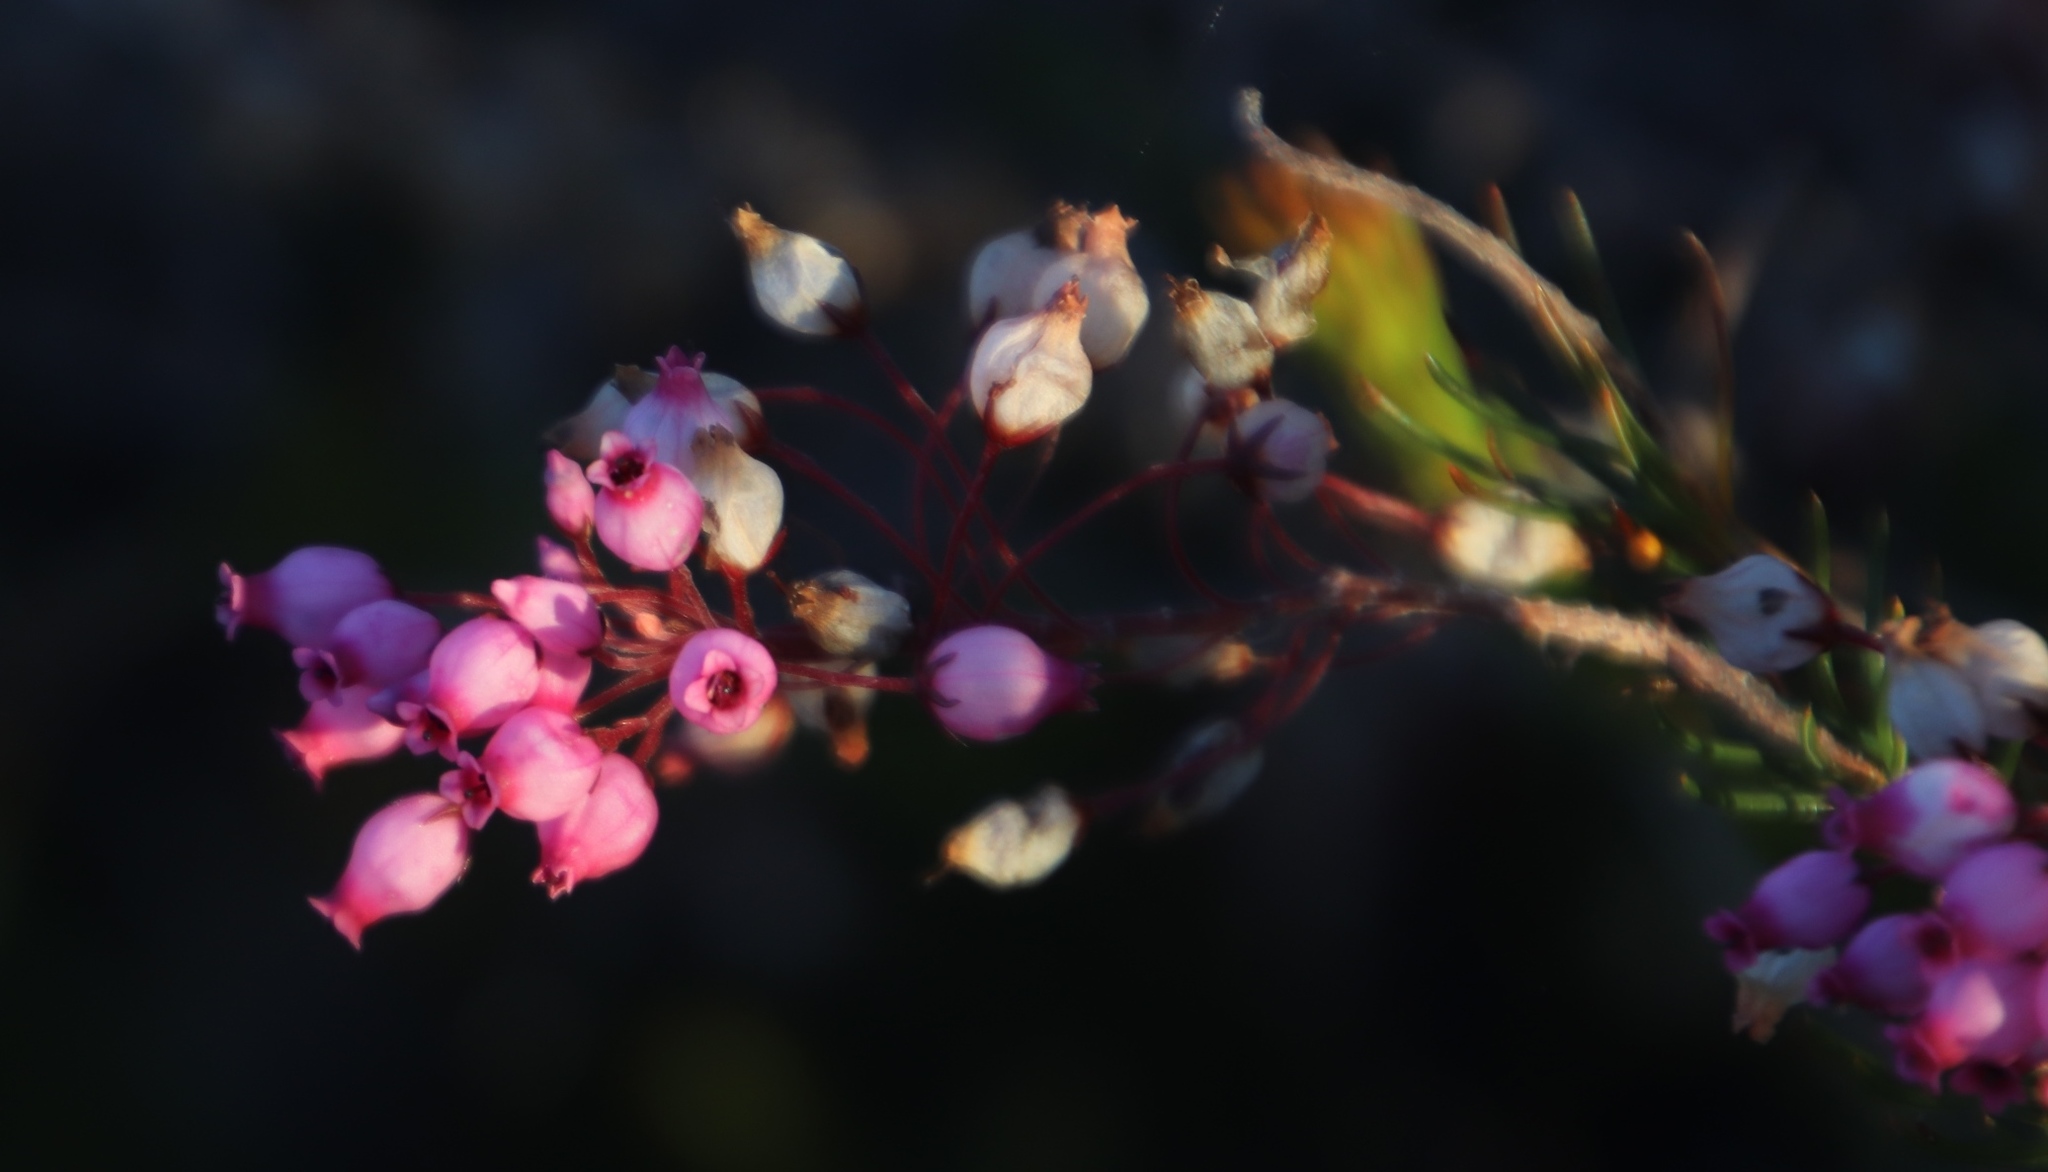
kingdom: Plantae
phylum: Tracheophyta
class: Magnoliopsida
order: Ericales
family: Ericaceae
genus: Erica
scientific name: Erica inflata
